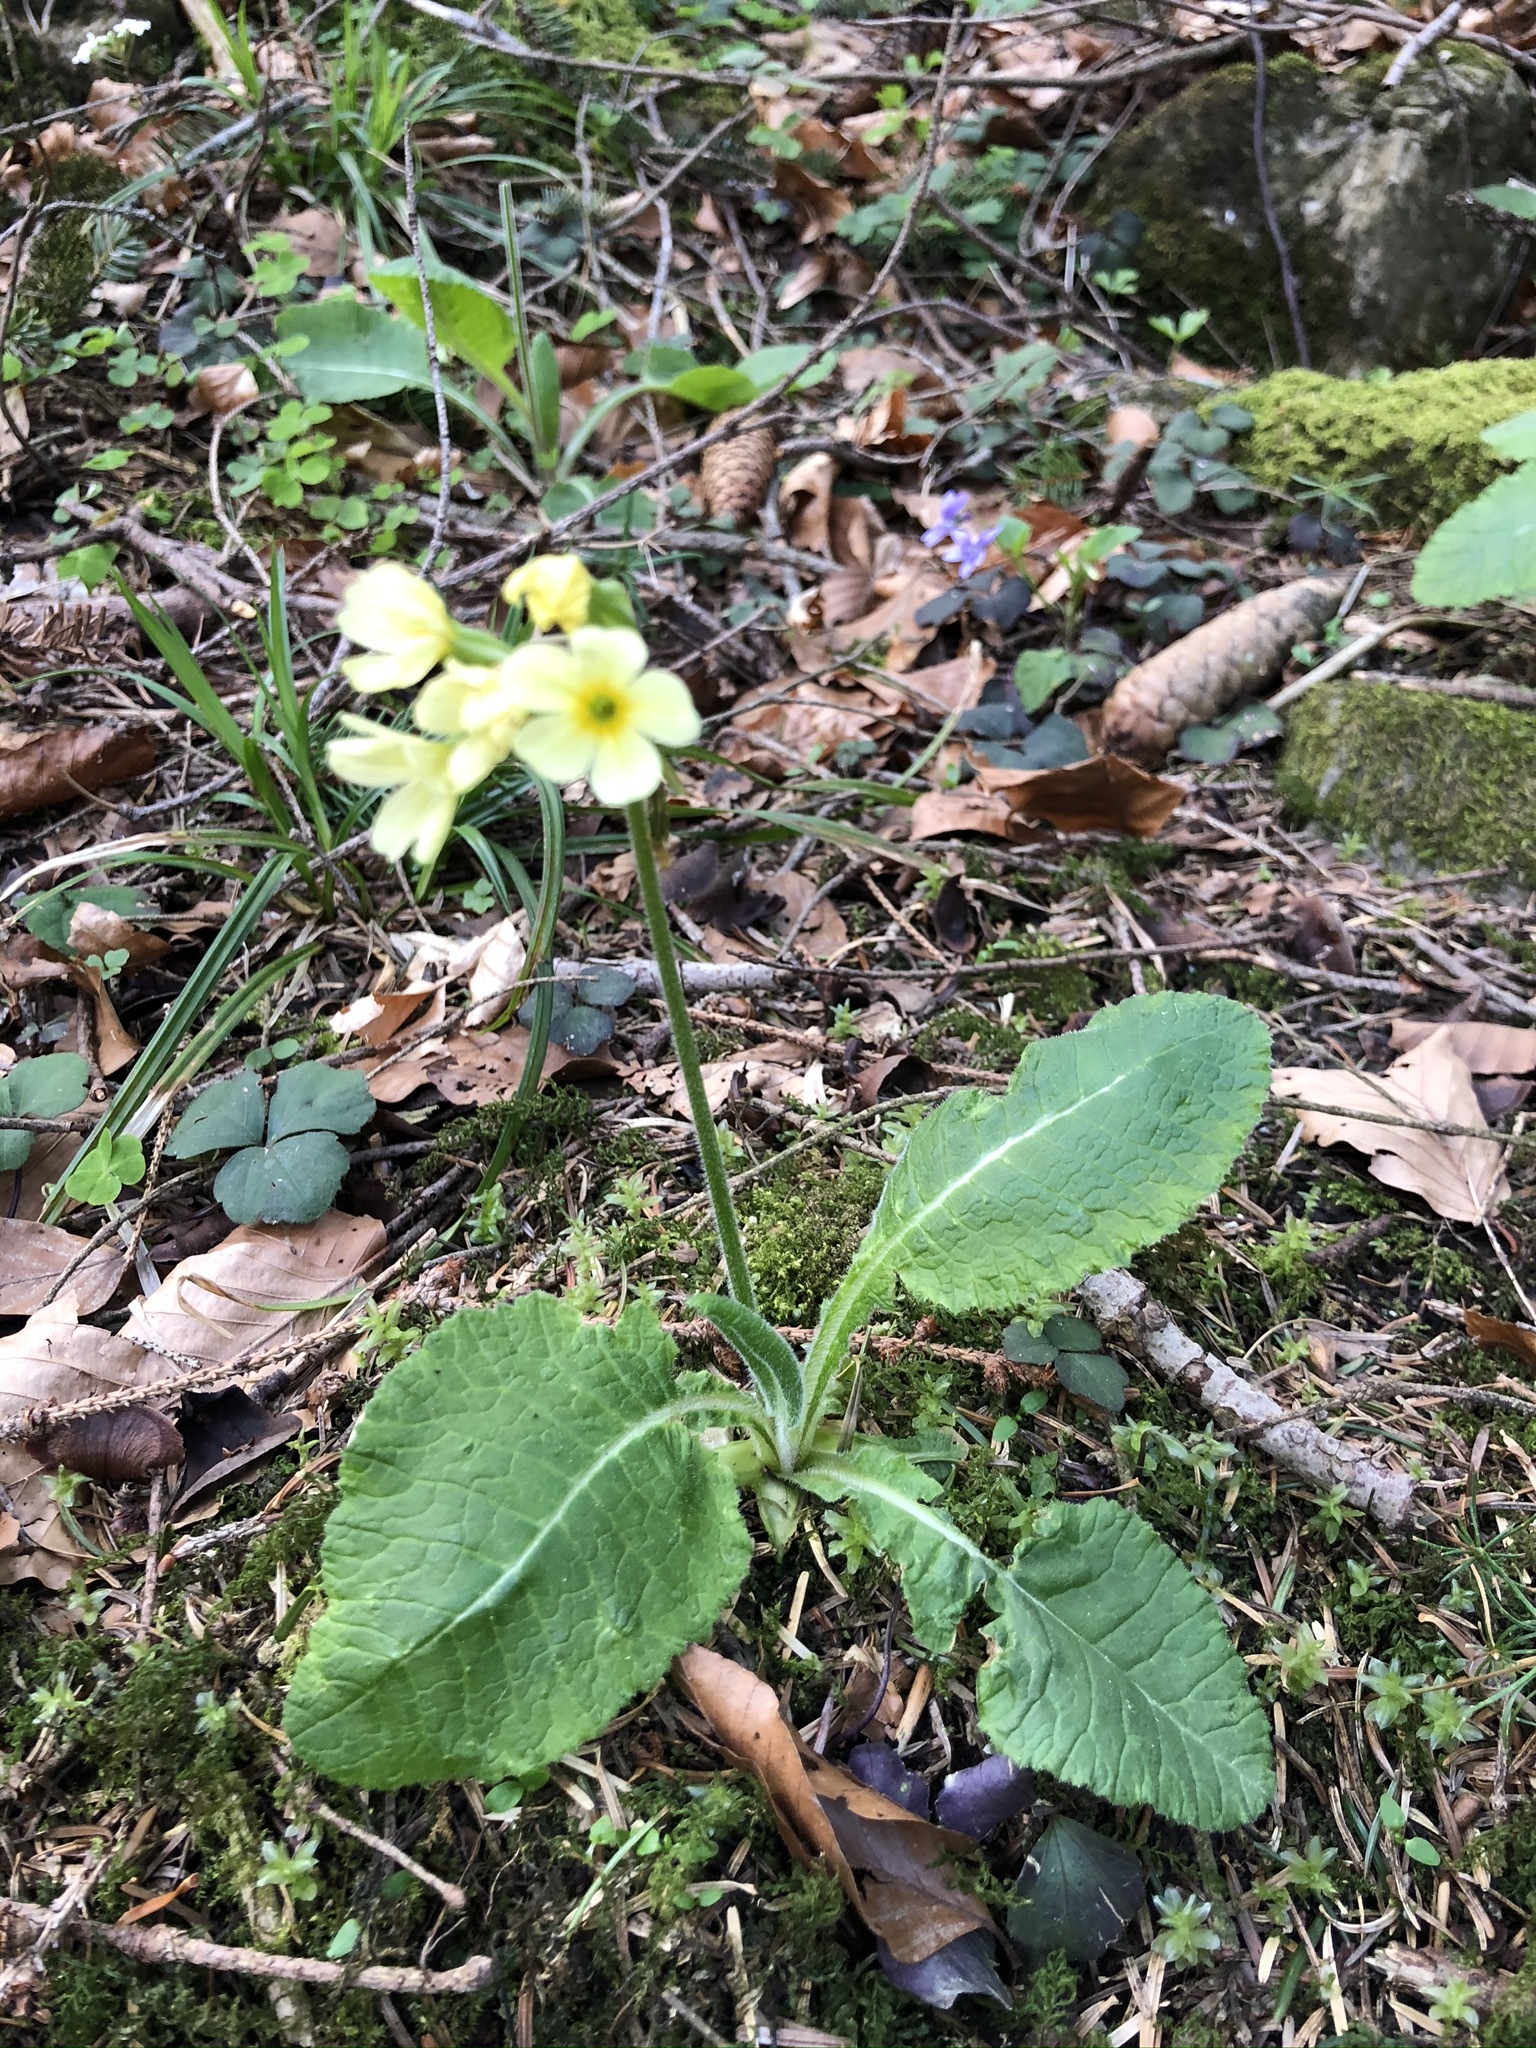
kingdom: Plantae
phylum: Tracheophyta
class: Magnoliopsida
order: Ericales
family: Primulaceae
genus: Primula
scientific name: Primula elatior
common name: Oxlip
